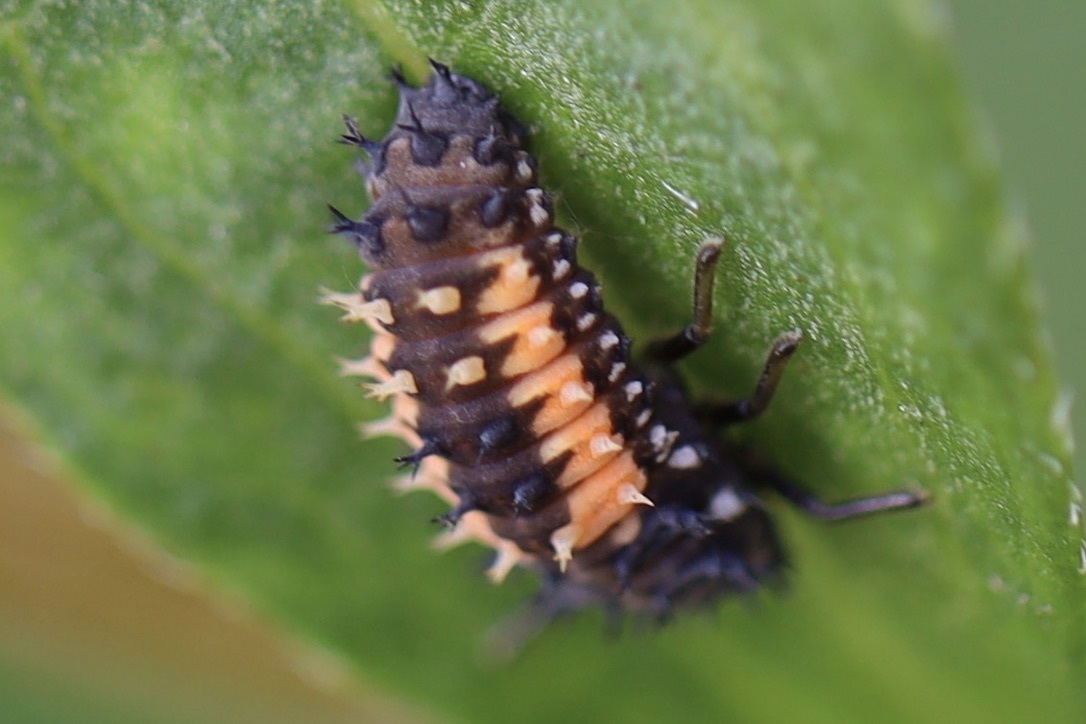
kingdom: Animalia
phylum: Arthropoda
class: Insecta
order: Coleoptera
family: Coccinellidae
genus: Harmonia
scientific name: Harmonia axyridis
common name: Harlequin ladybird
